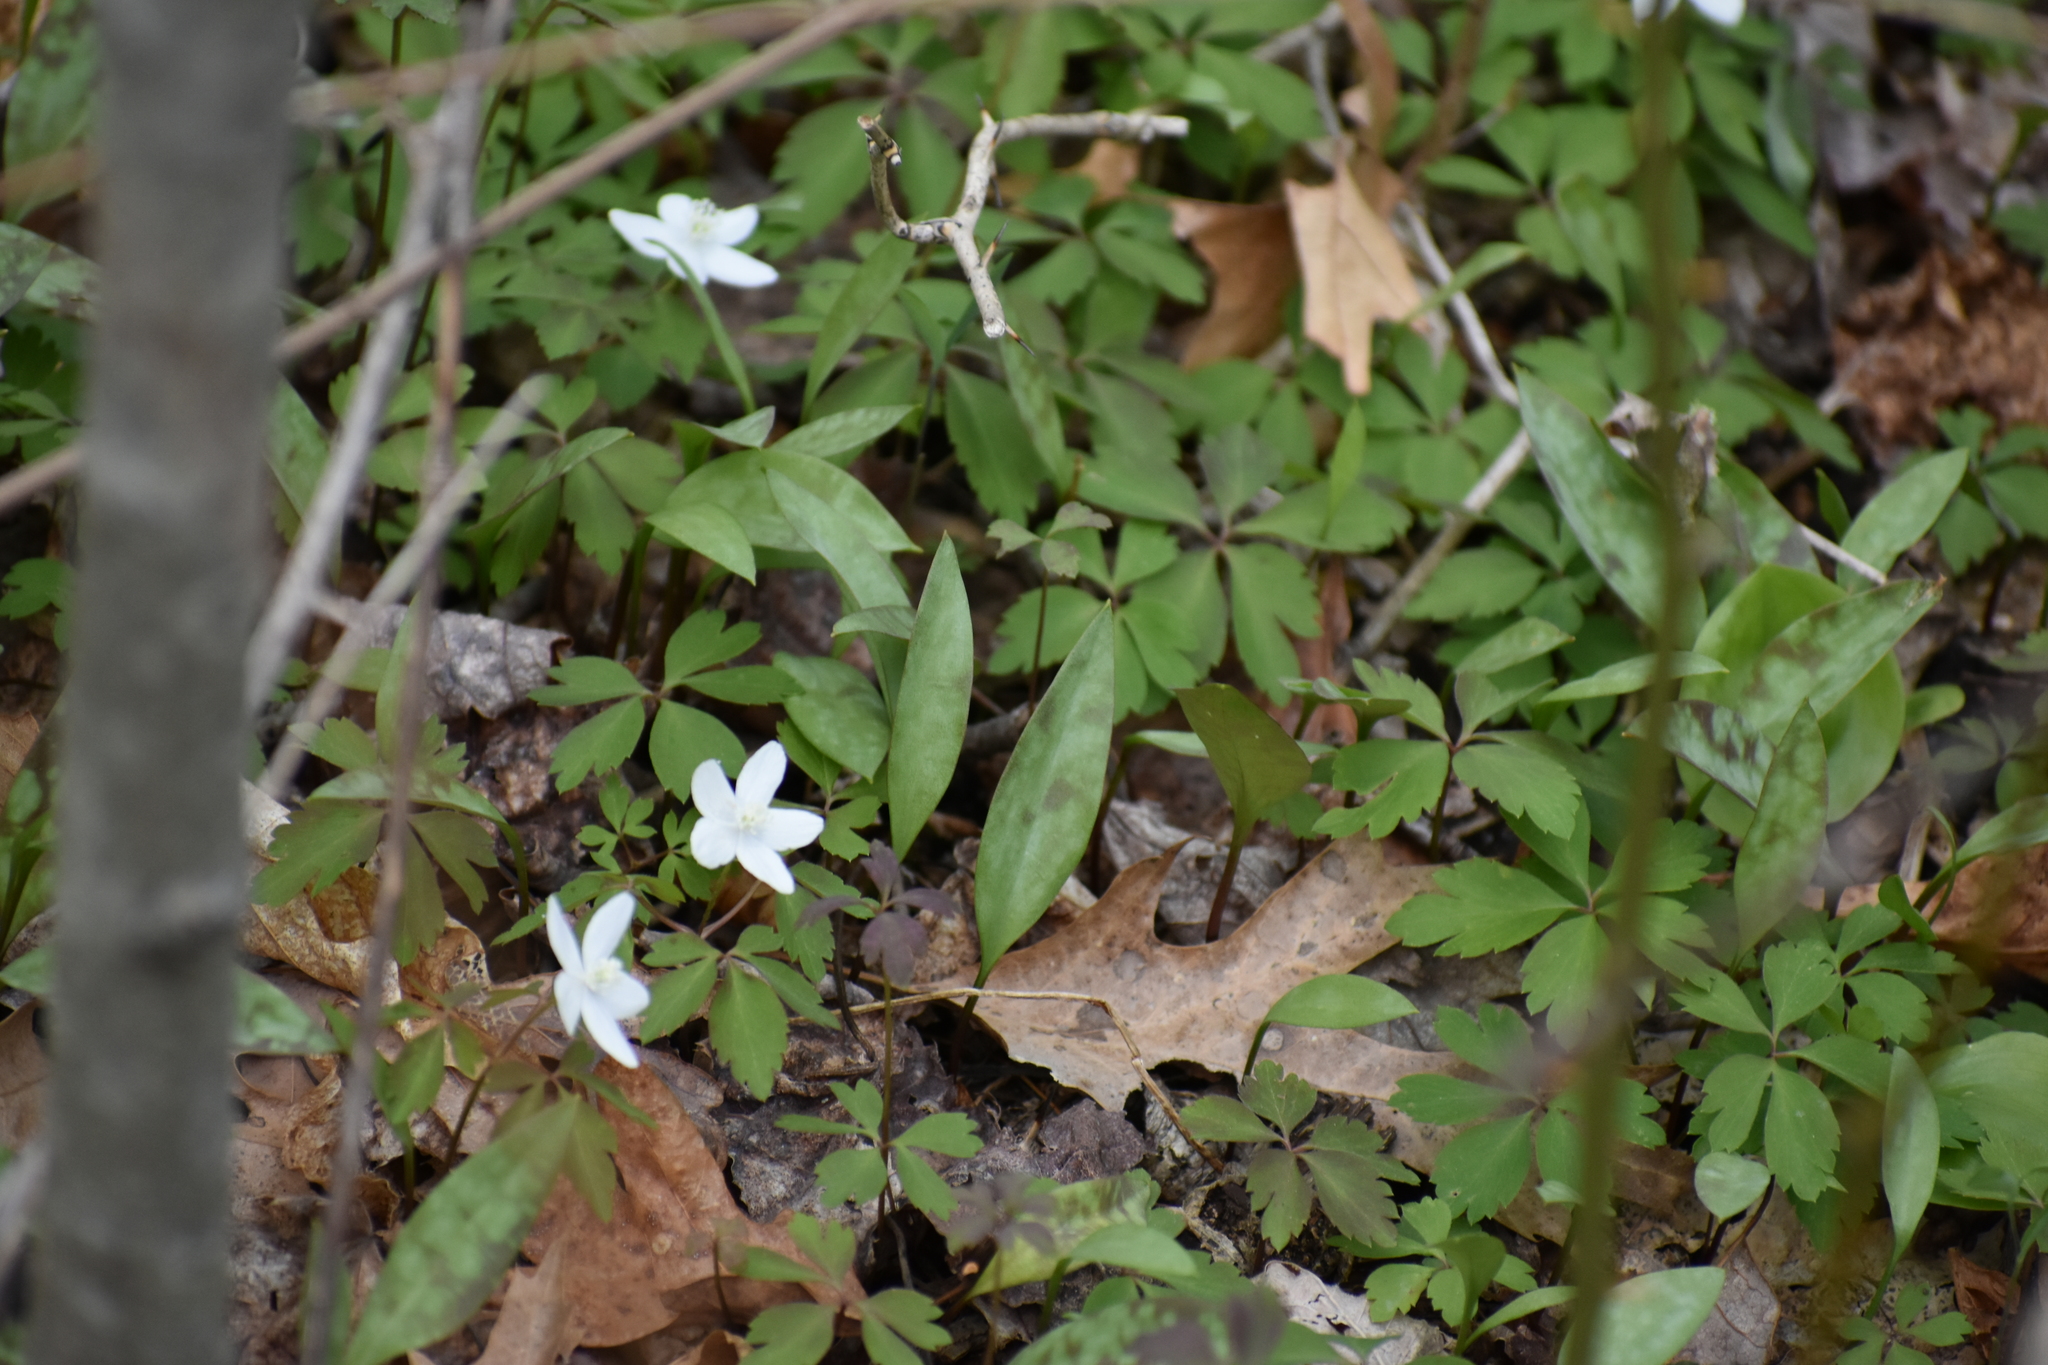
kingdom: Plantae
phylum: Tracheophyta
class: Magnoliopsida
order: Ranunculales
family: Ranunculaceae
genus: Anemone
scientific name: Anemone quinquefolia
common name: Wood anemone
